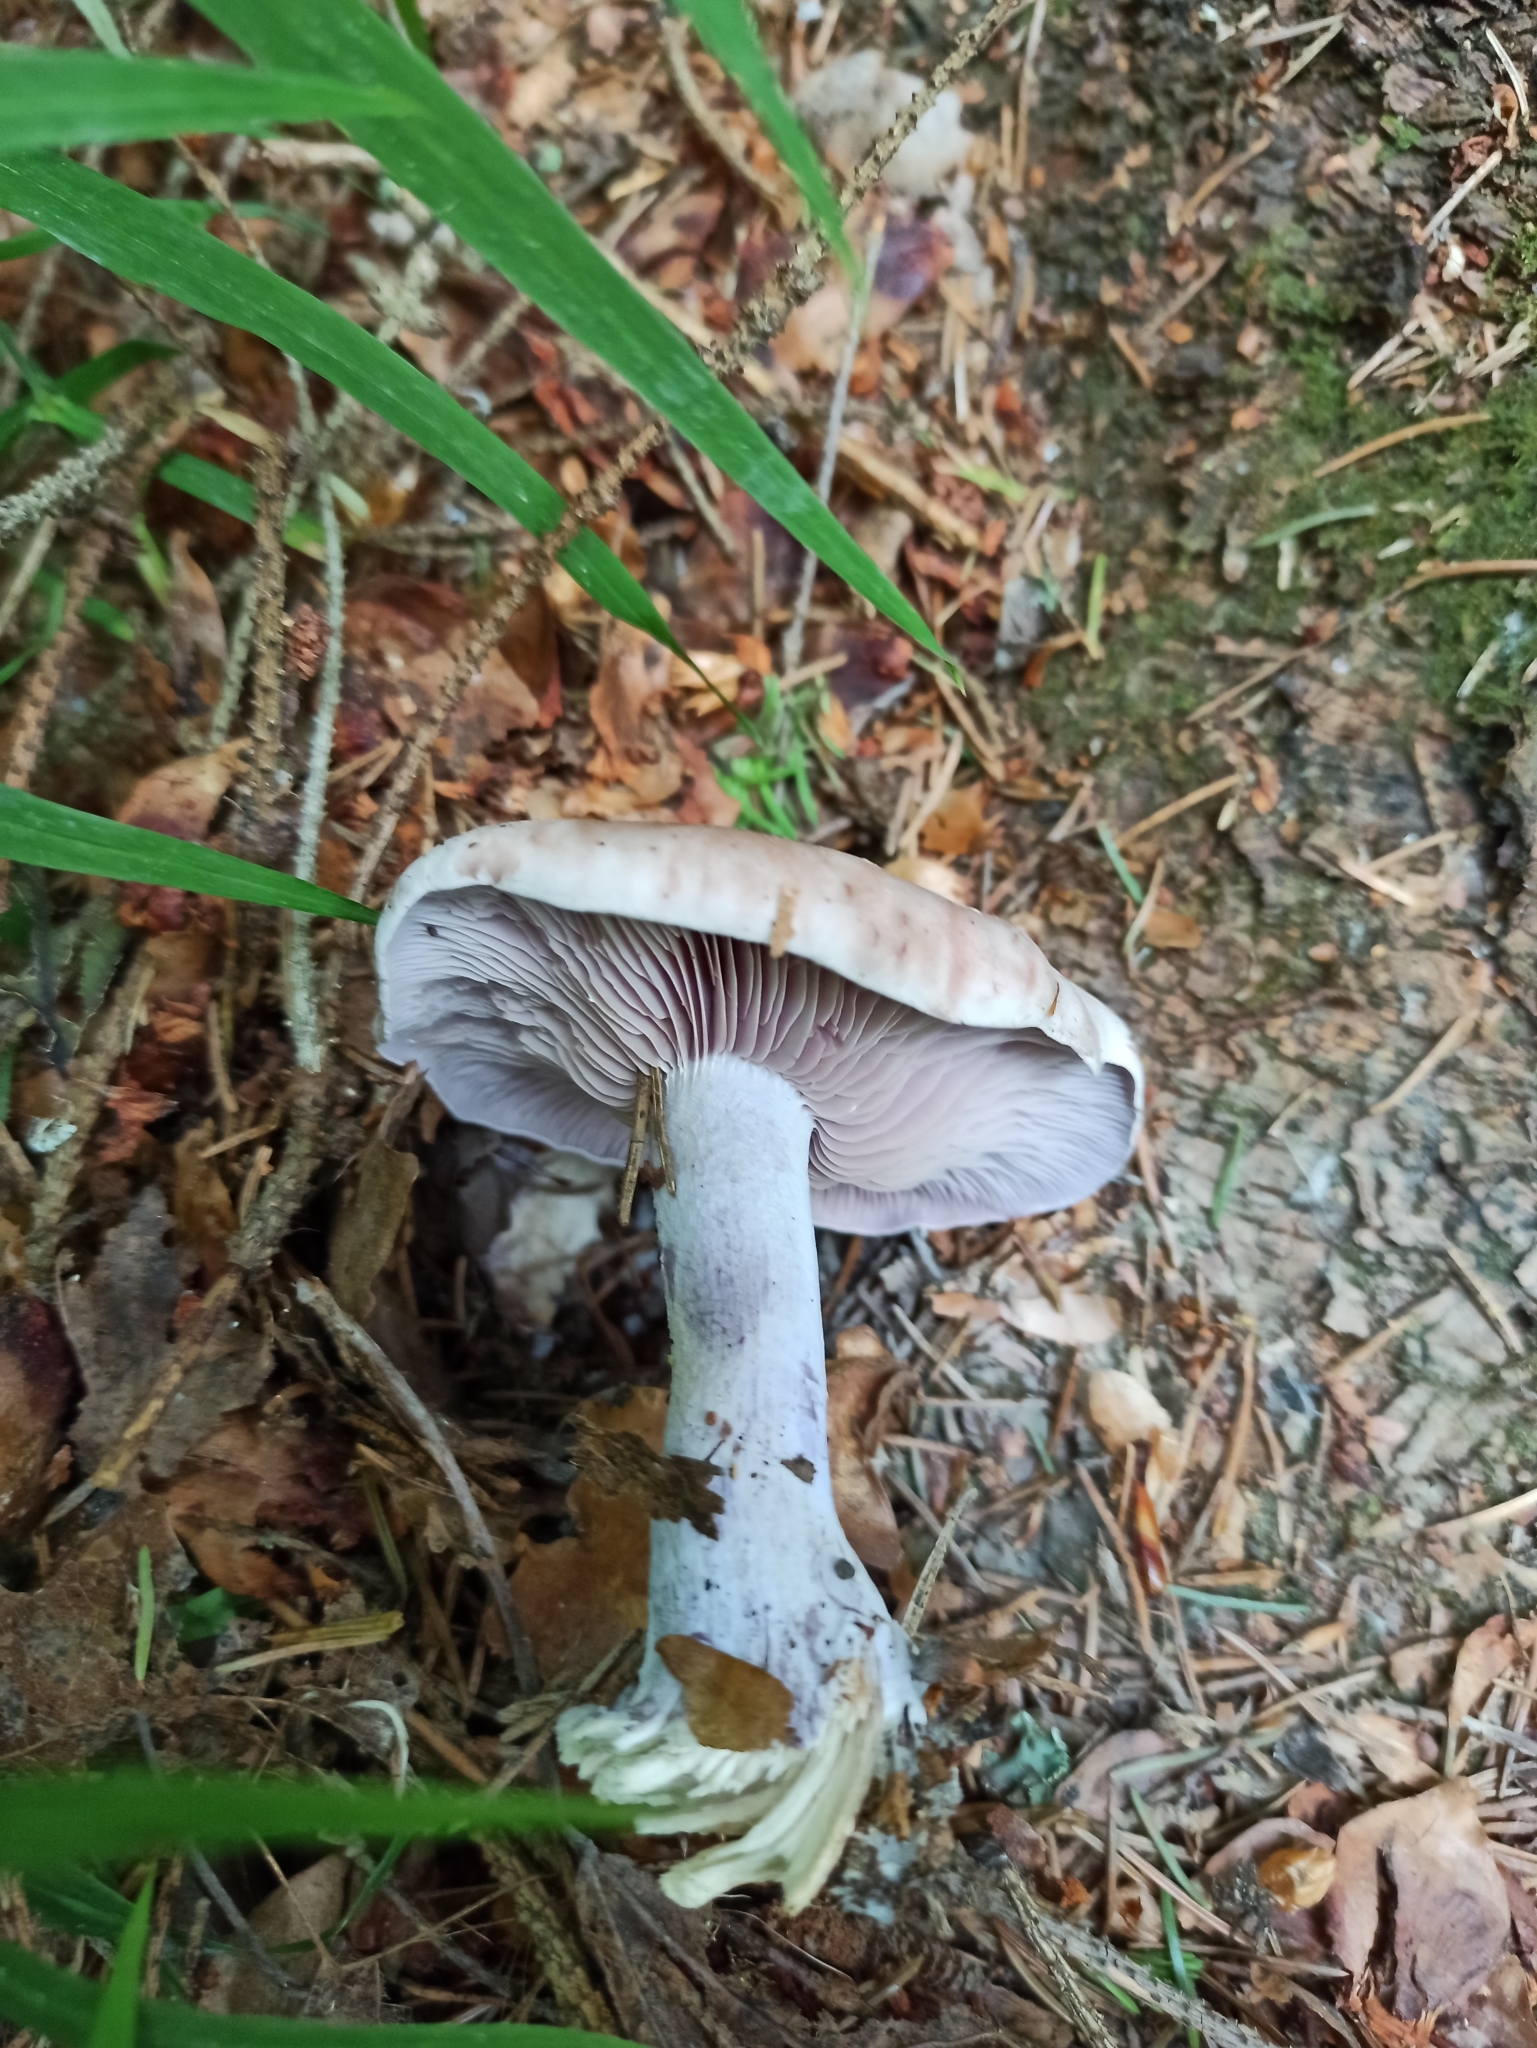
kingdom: Fungi
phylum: Basidiomycota
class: Agaricomycetes
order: Agaricales
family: Tricholomataceae
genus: Collybia
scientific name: Collybia
